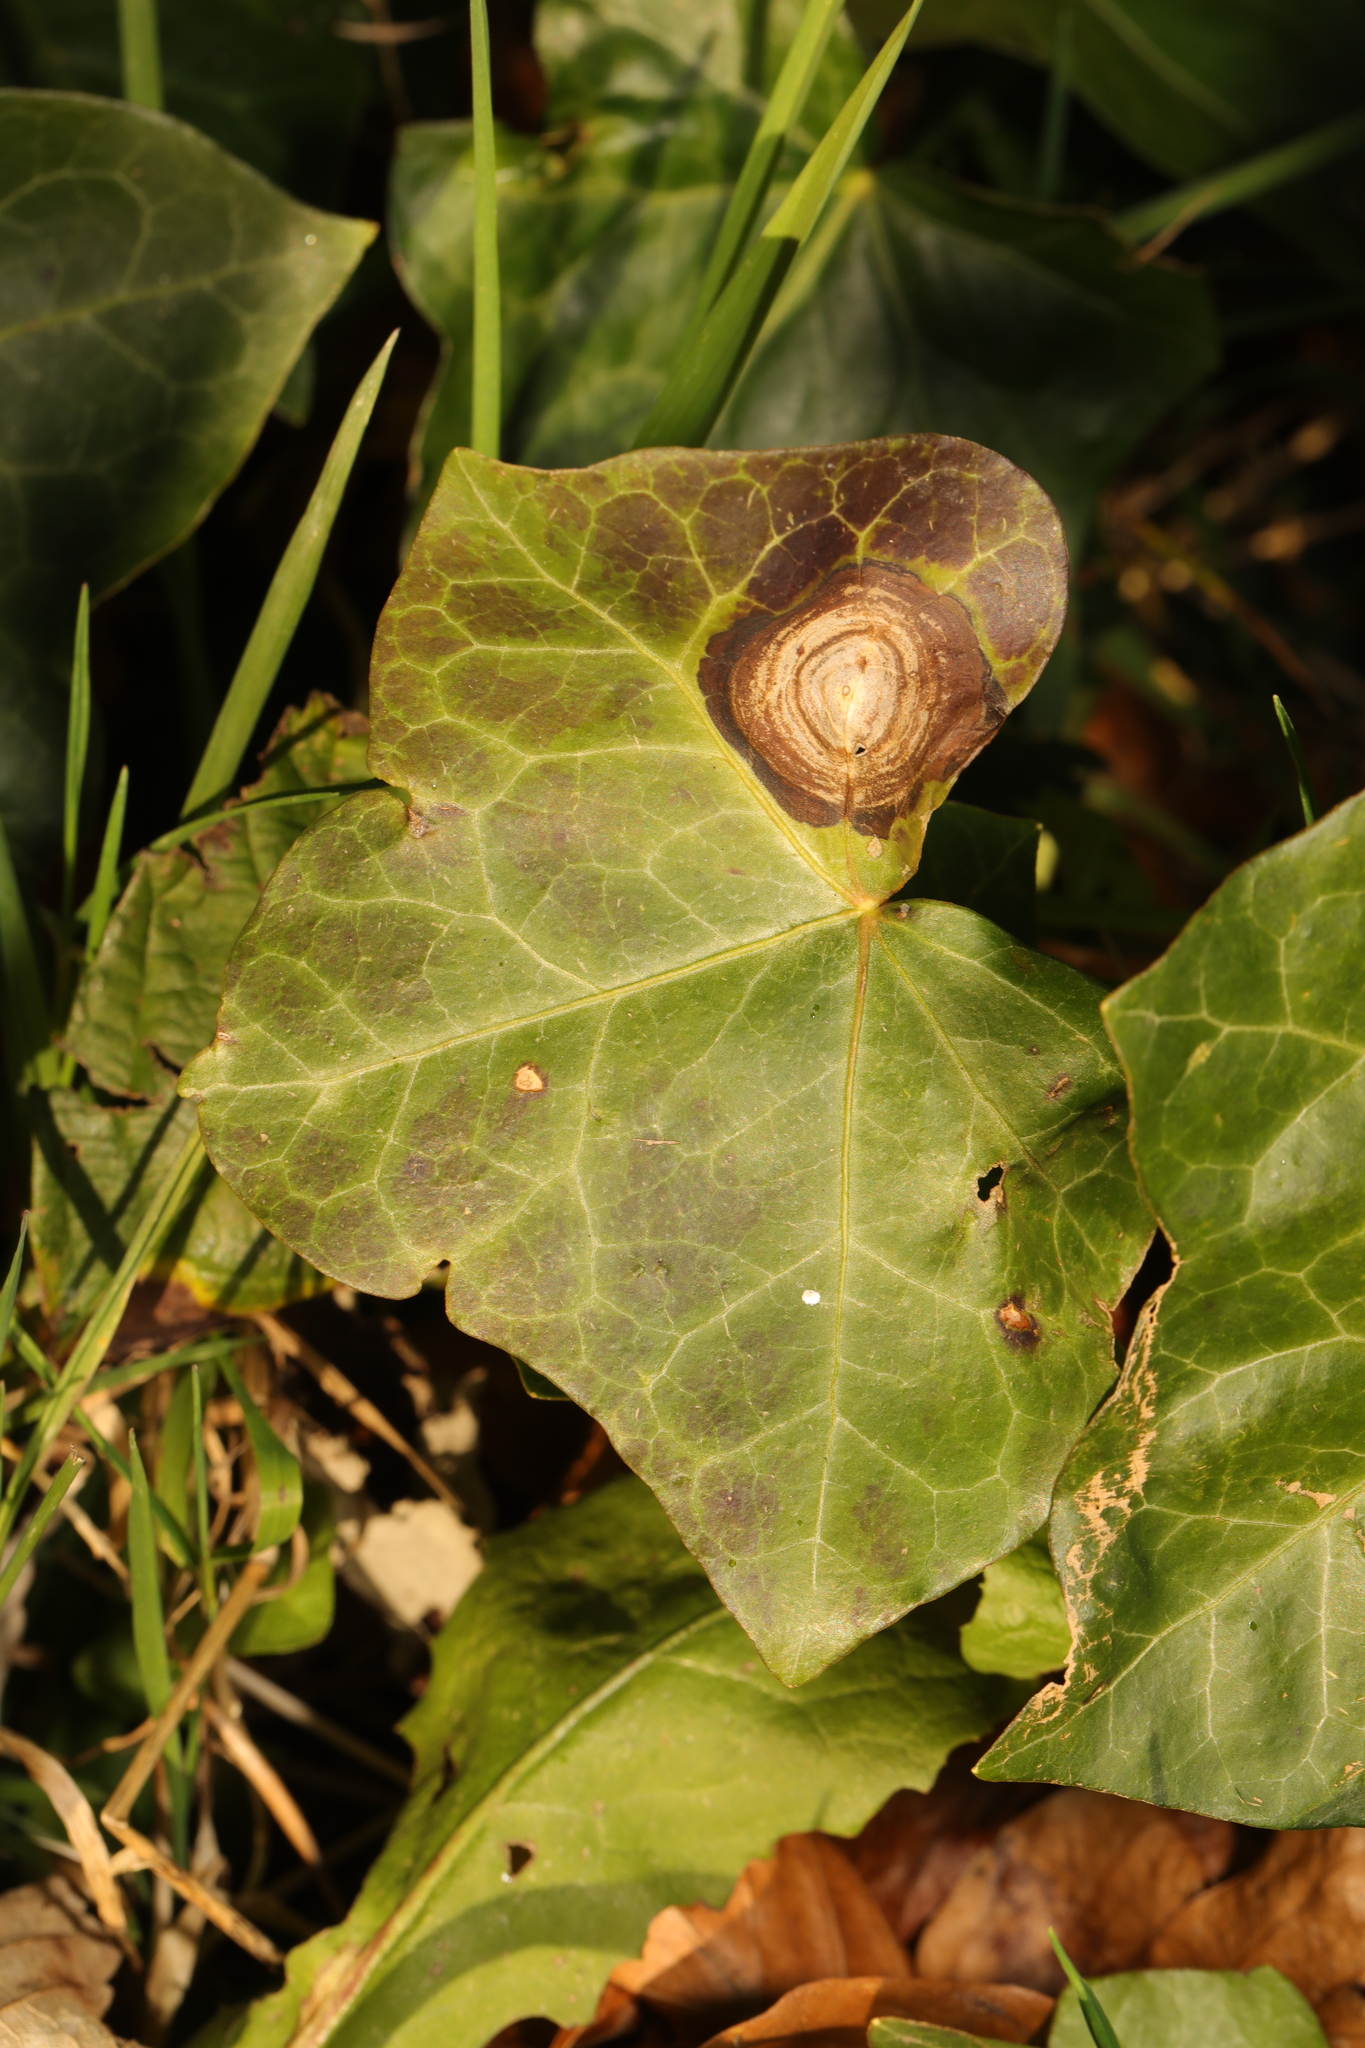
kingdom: Fungi
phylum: Ascomycota
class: Dothideomycetes
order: Pleosporales
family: Didymellaceae
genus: Boeremia
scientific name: Boeremia hedericola
